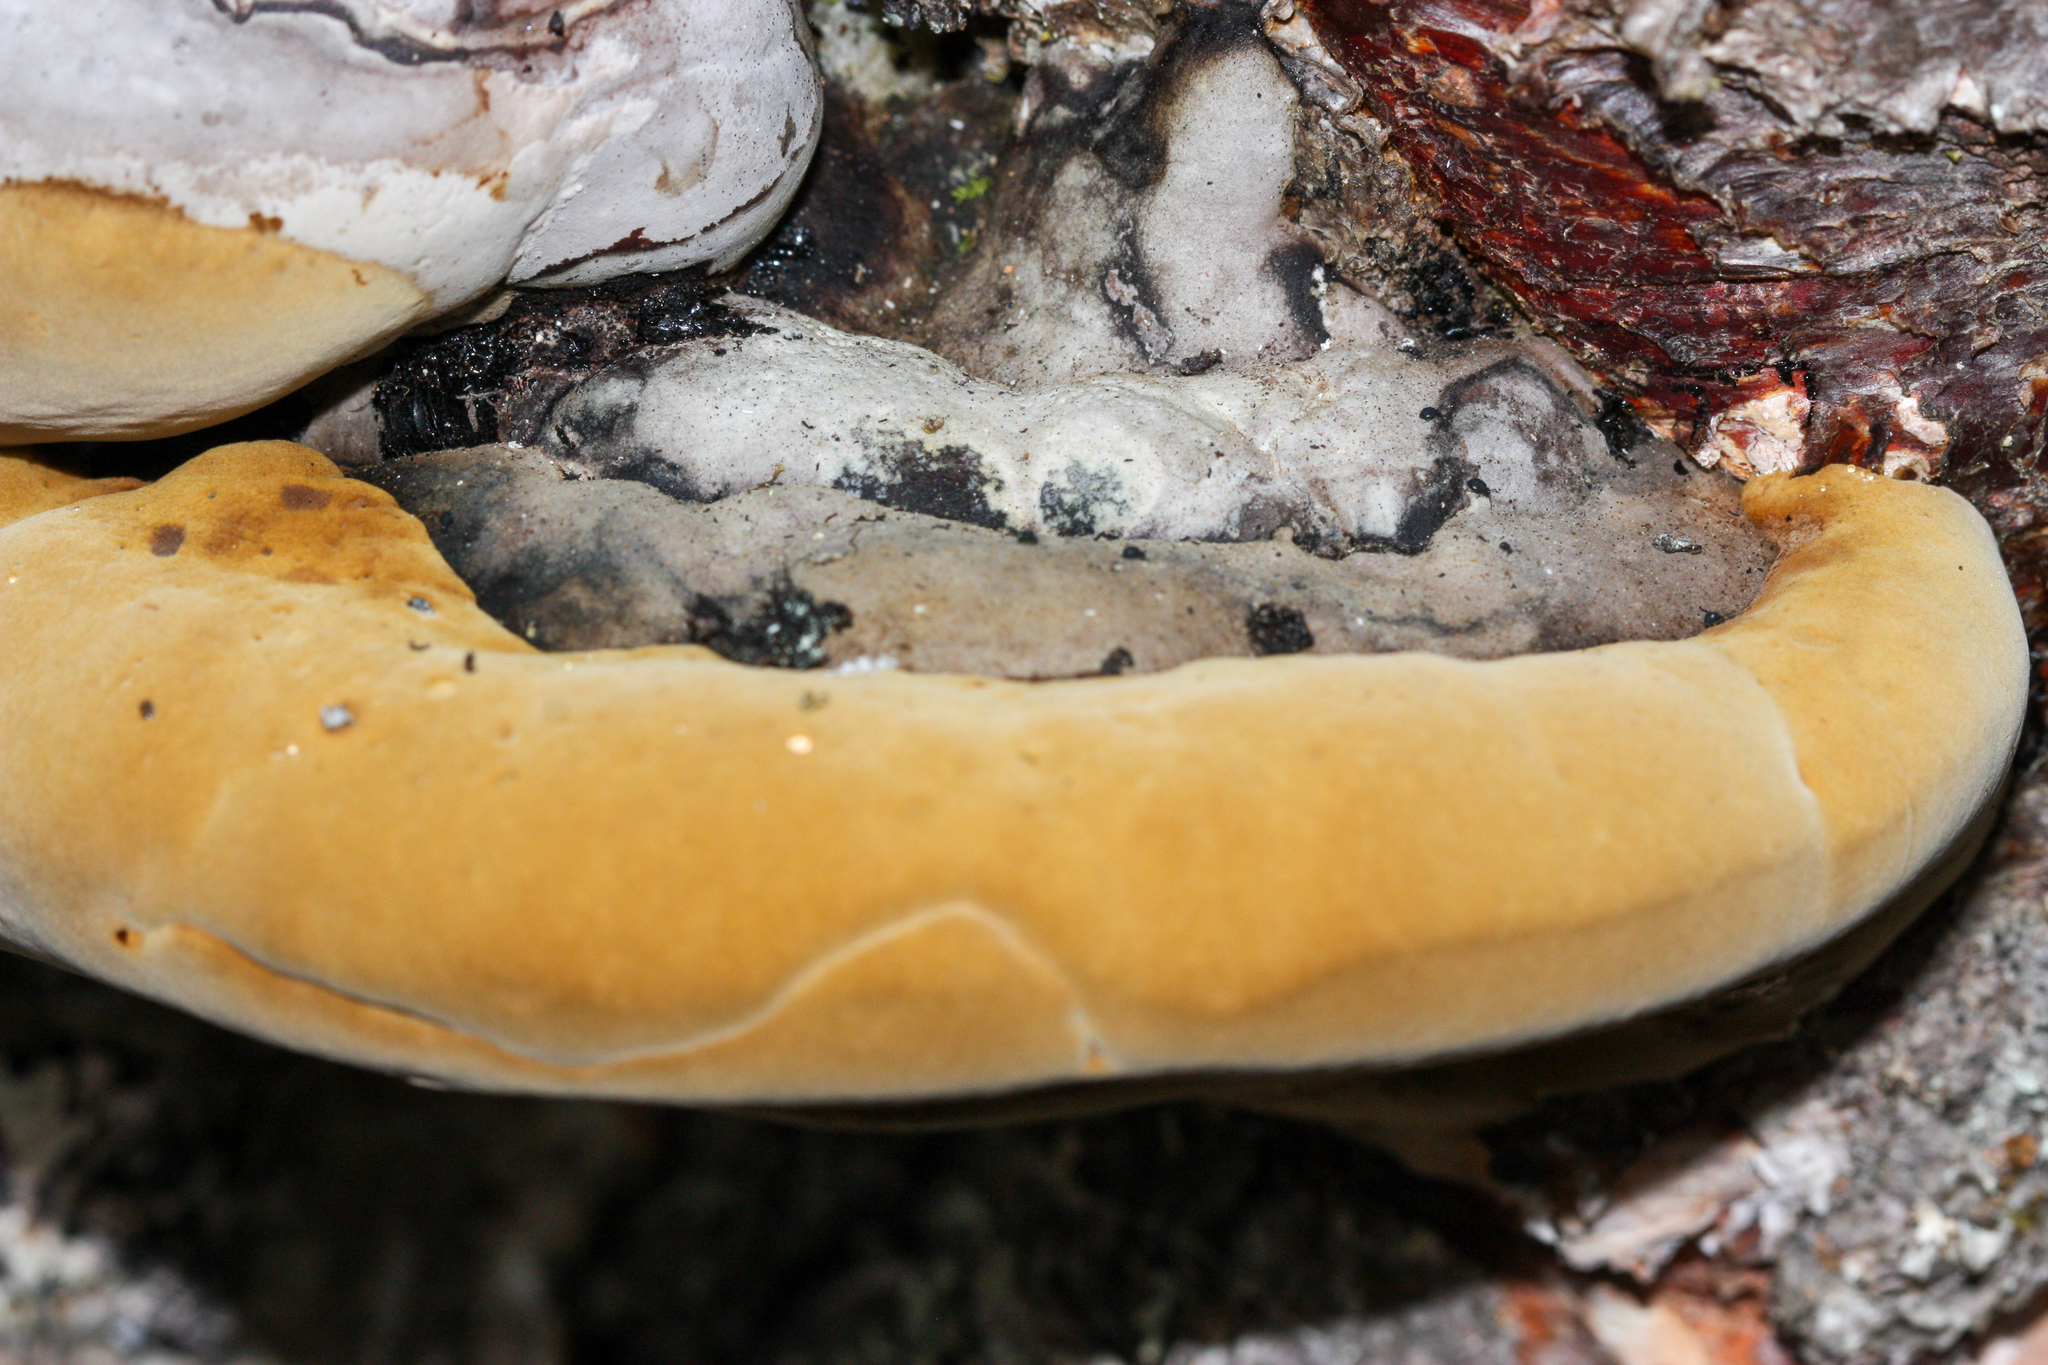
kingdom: Fungi
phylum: Basidiomycota
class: Agaricomycetes
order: Hymenochaetales
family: Hymenochaetaceae
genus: Phellinus
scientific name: Phellinus igniarius
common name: Willow bracket
